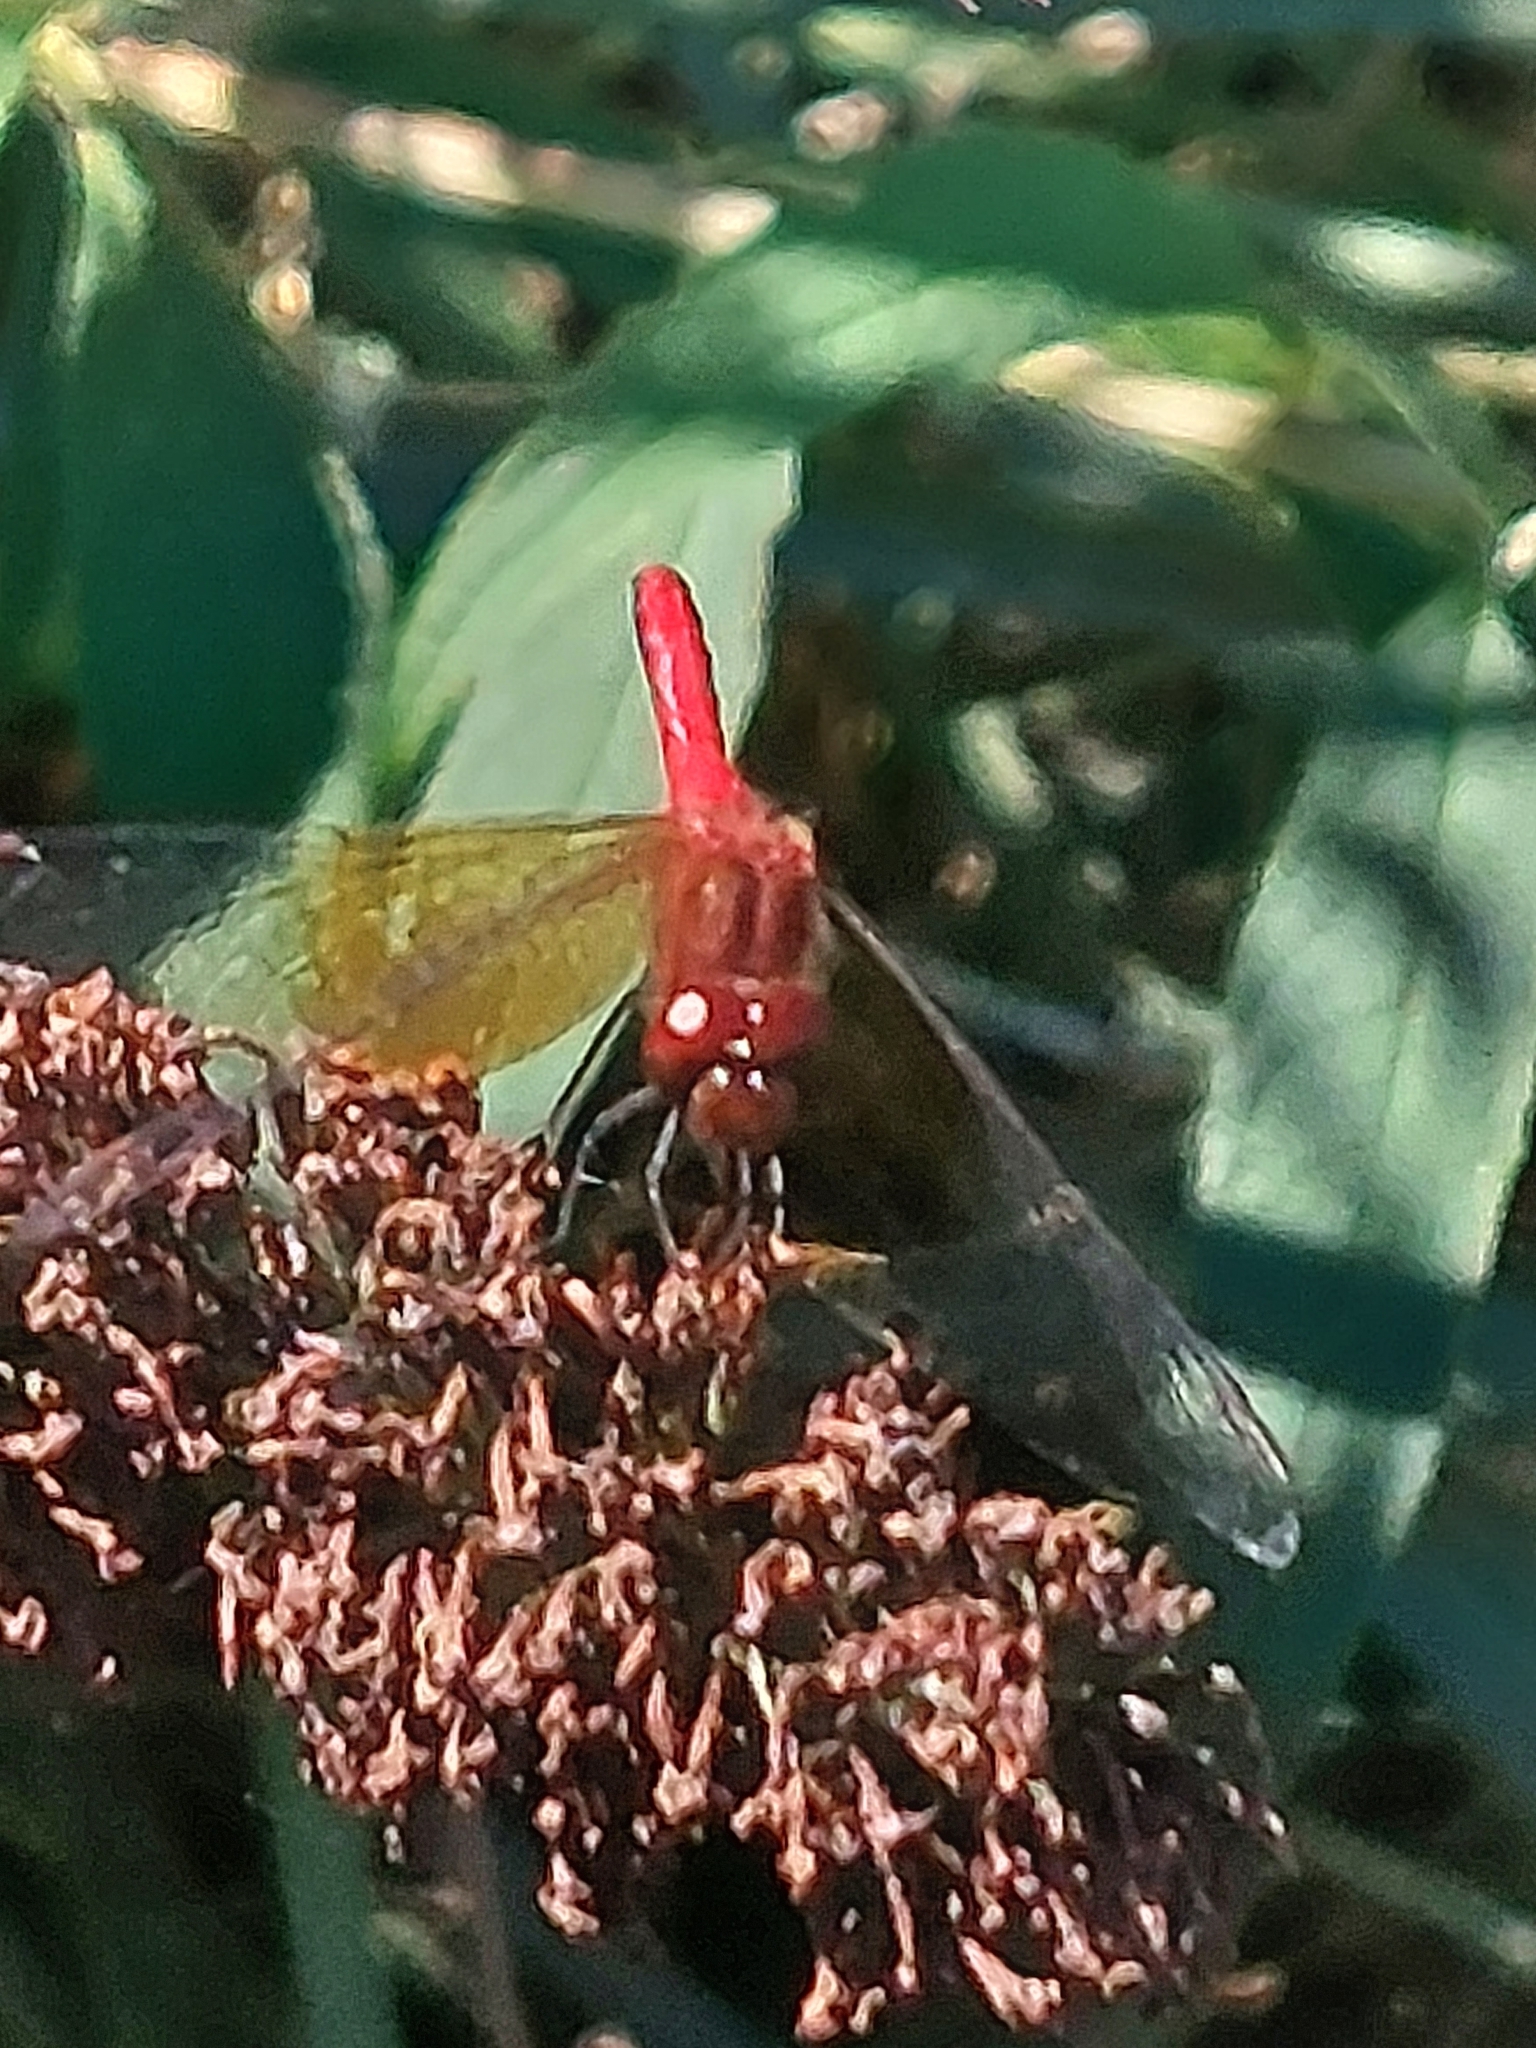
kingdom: Animalia
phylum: Arthropoda
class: Insecta
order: Odonata
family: Libellulidae
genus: Sympetrum
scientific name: Sympetrum semicinctum
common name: Band-winged meadowhawk
